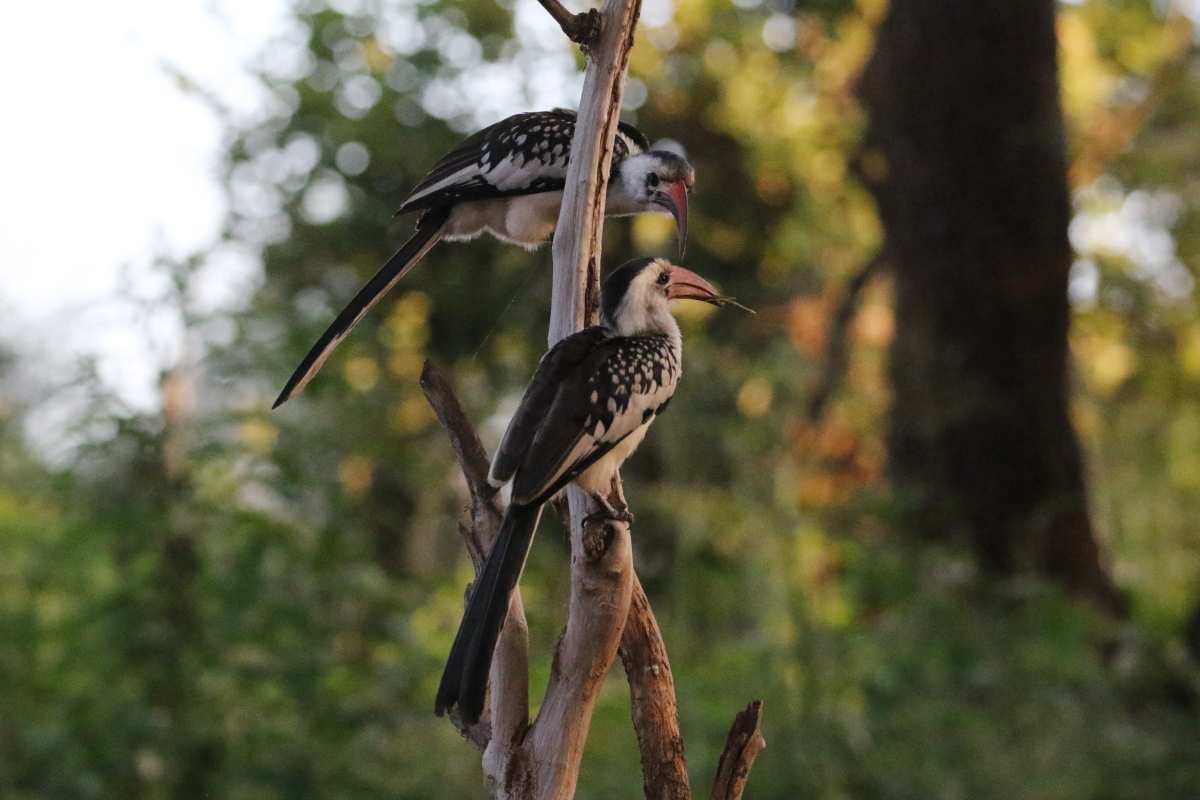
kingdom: Animalia
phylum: Chordata
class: Aves
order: Bucerotiformes
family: Bucerotidae
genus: Tockus
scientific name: Tockus erythrorhynchus
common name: Northern red-billed hornbill
